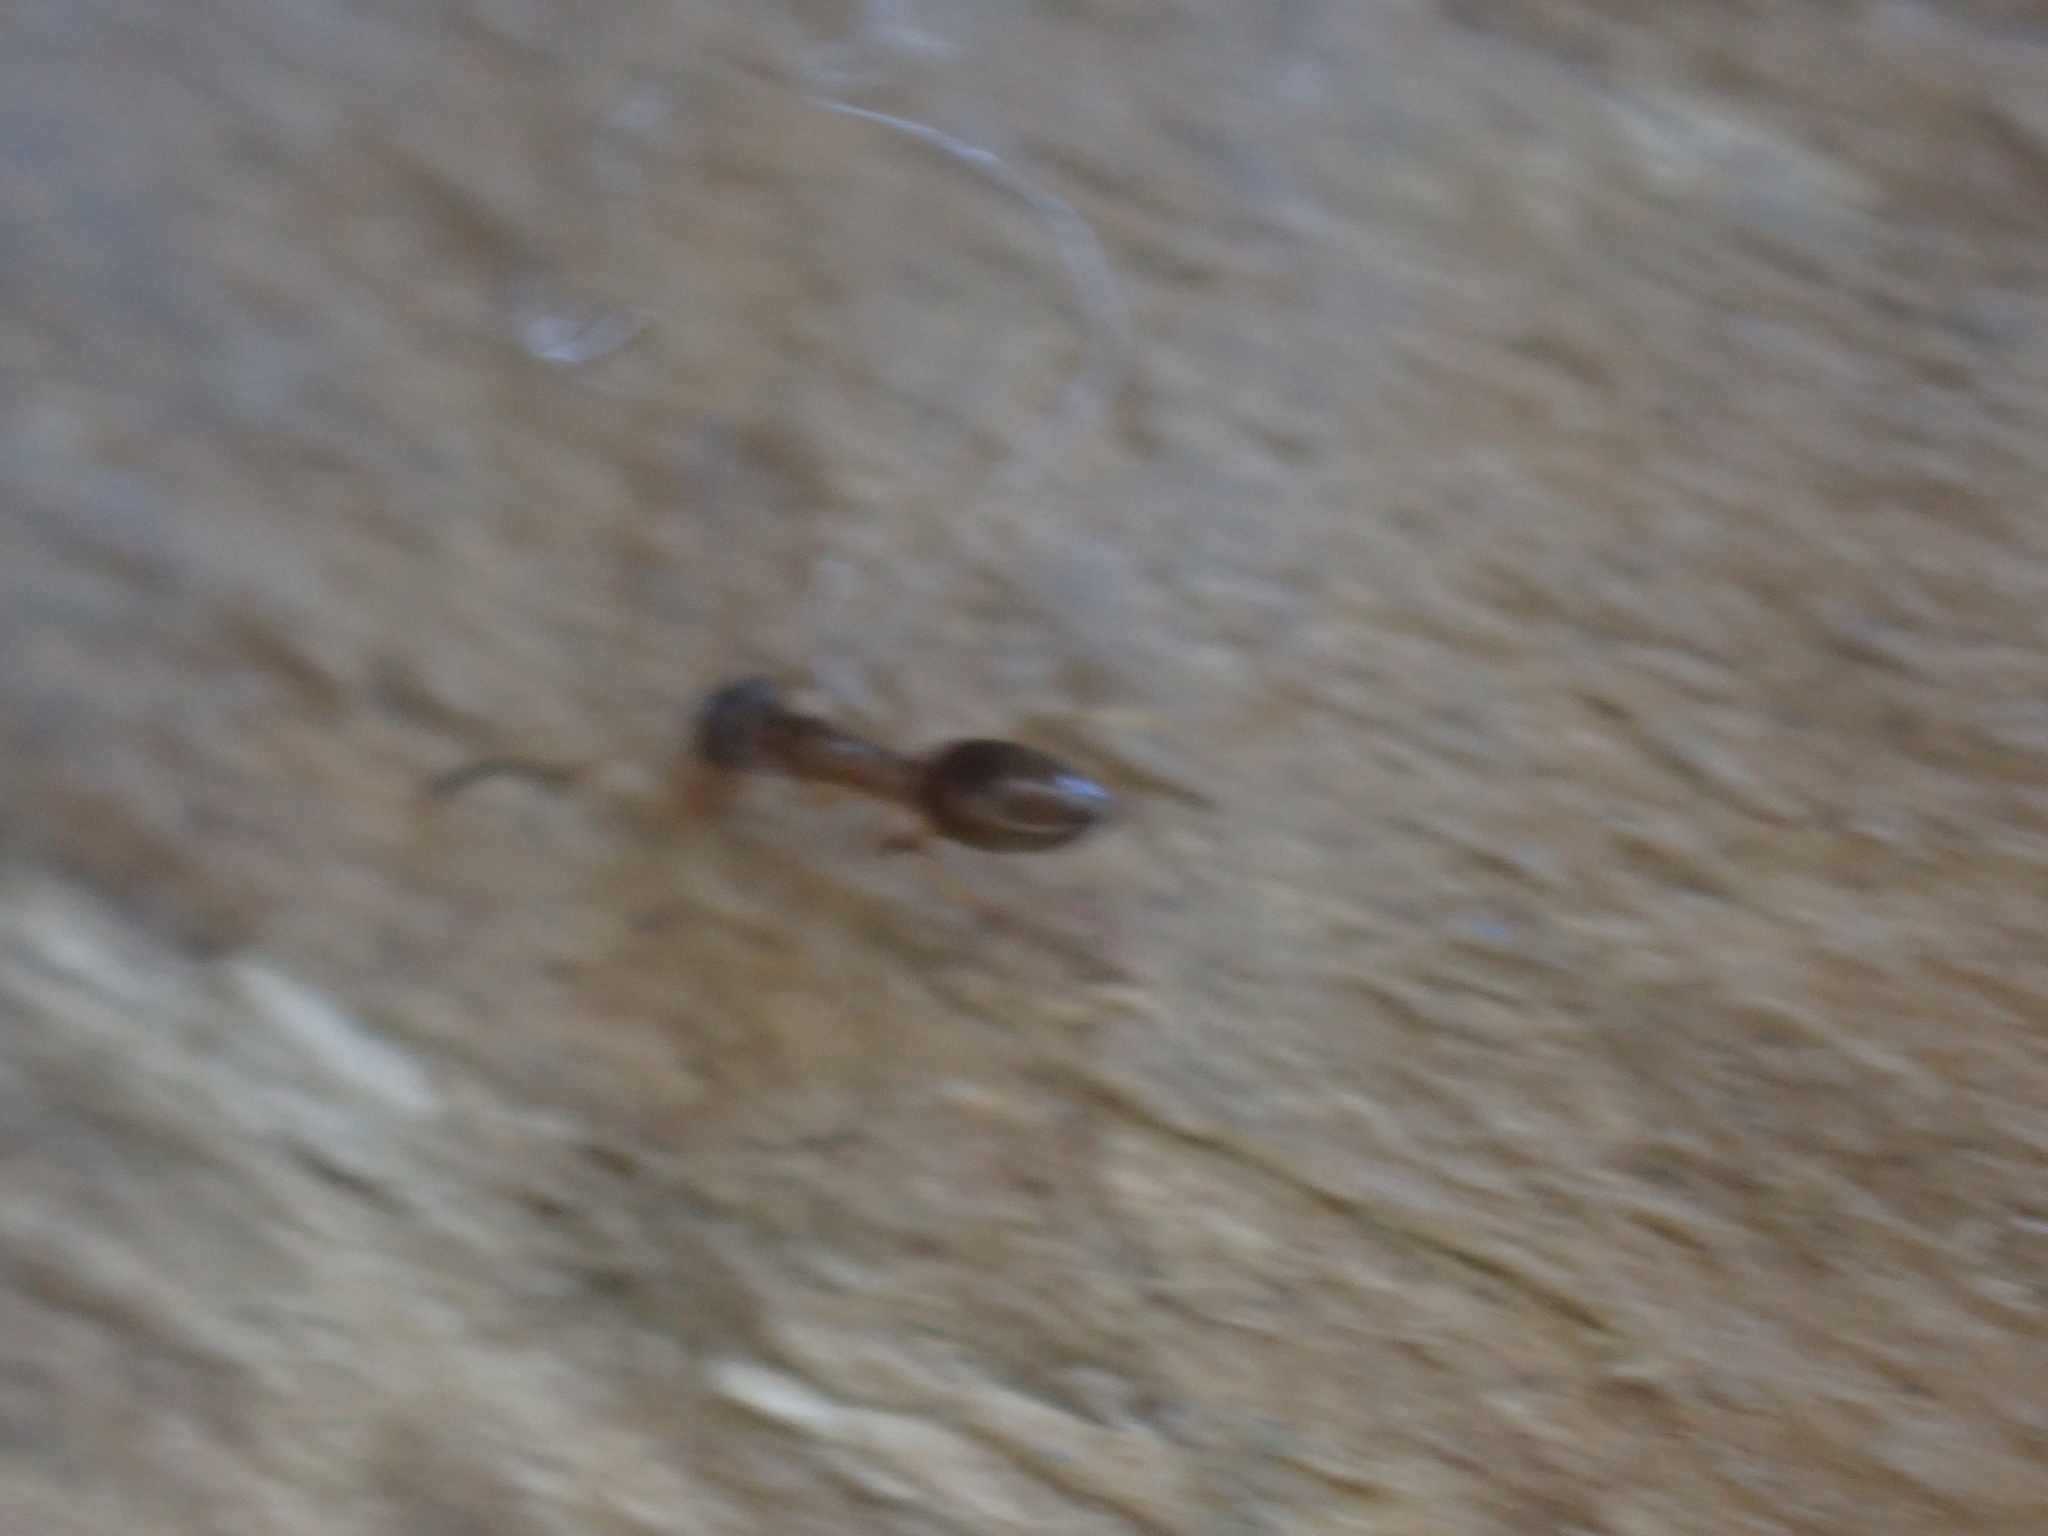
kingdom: Animalia
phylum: Arthropoda
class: Insecta
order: Hymenoptera
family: Formicidae
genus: Tapinoma
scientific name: Tapinoma sessile
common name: Odorous house ant
